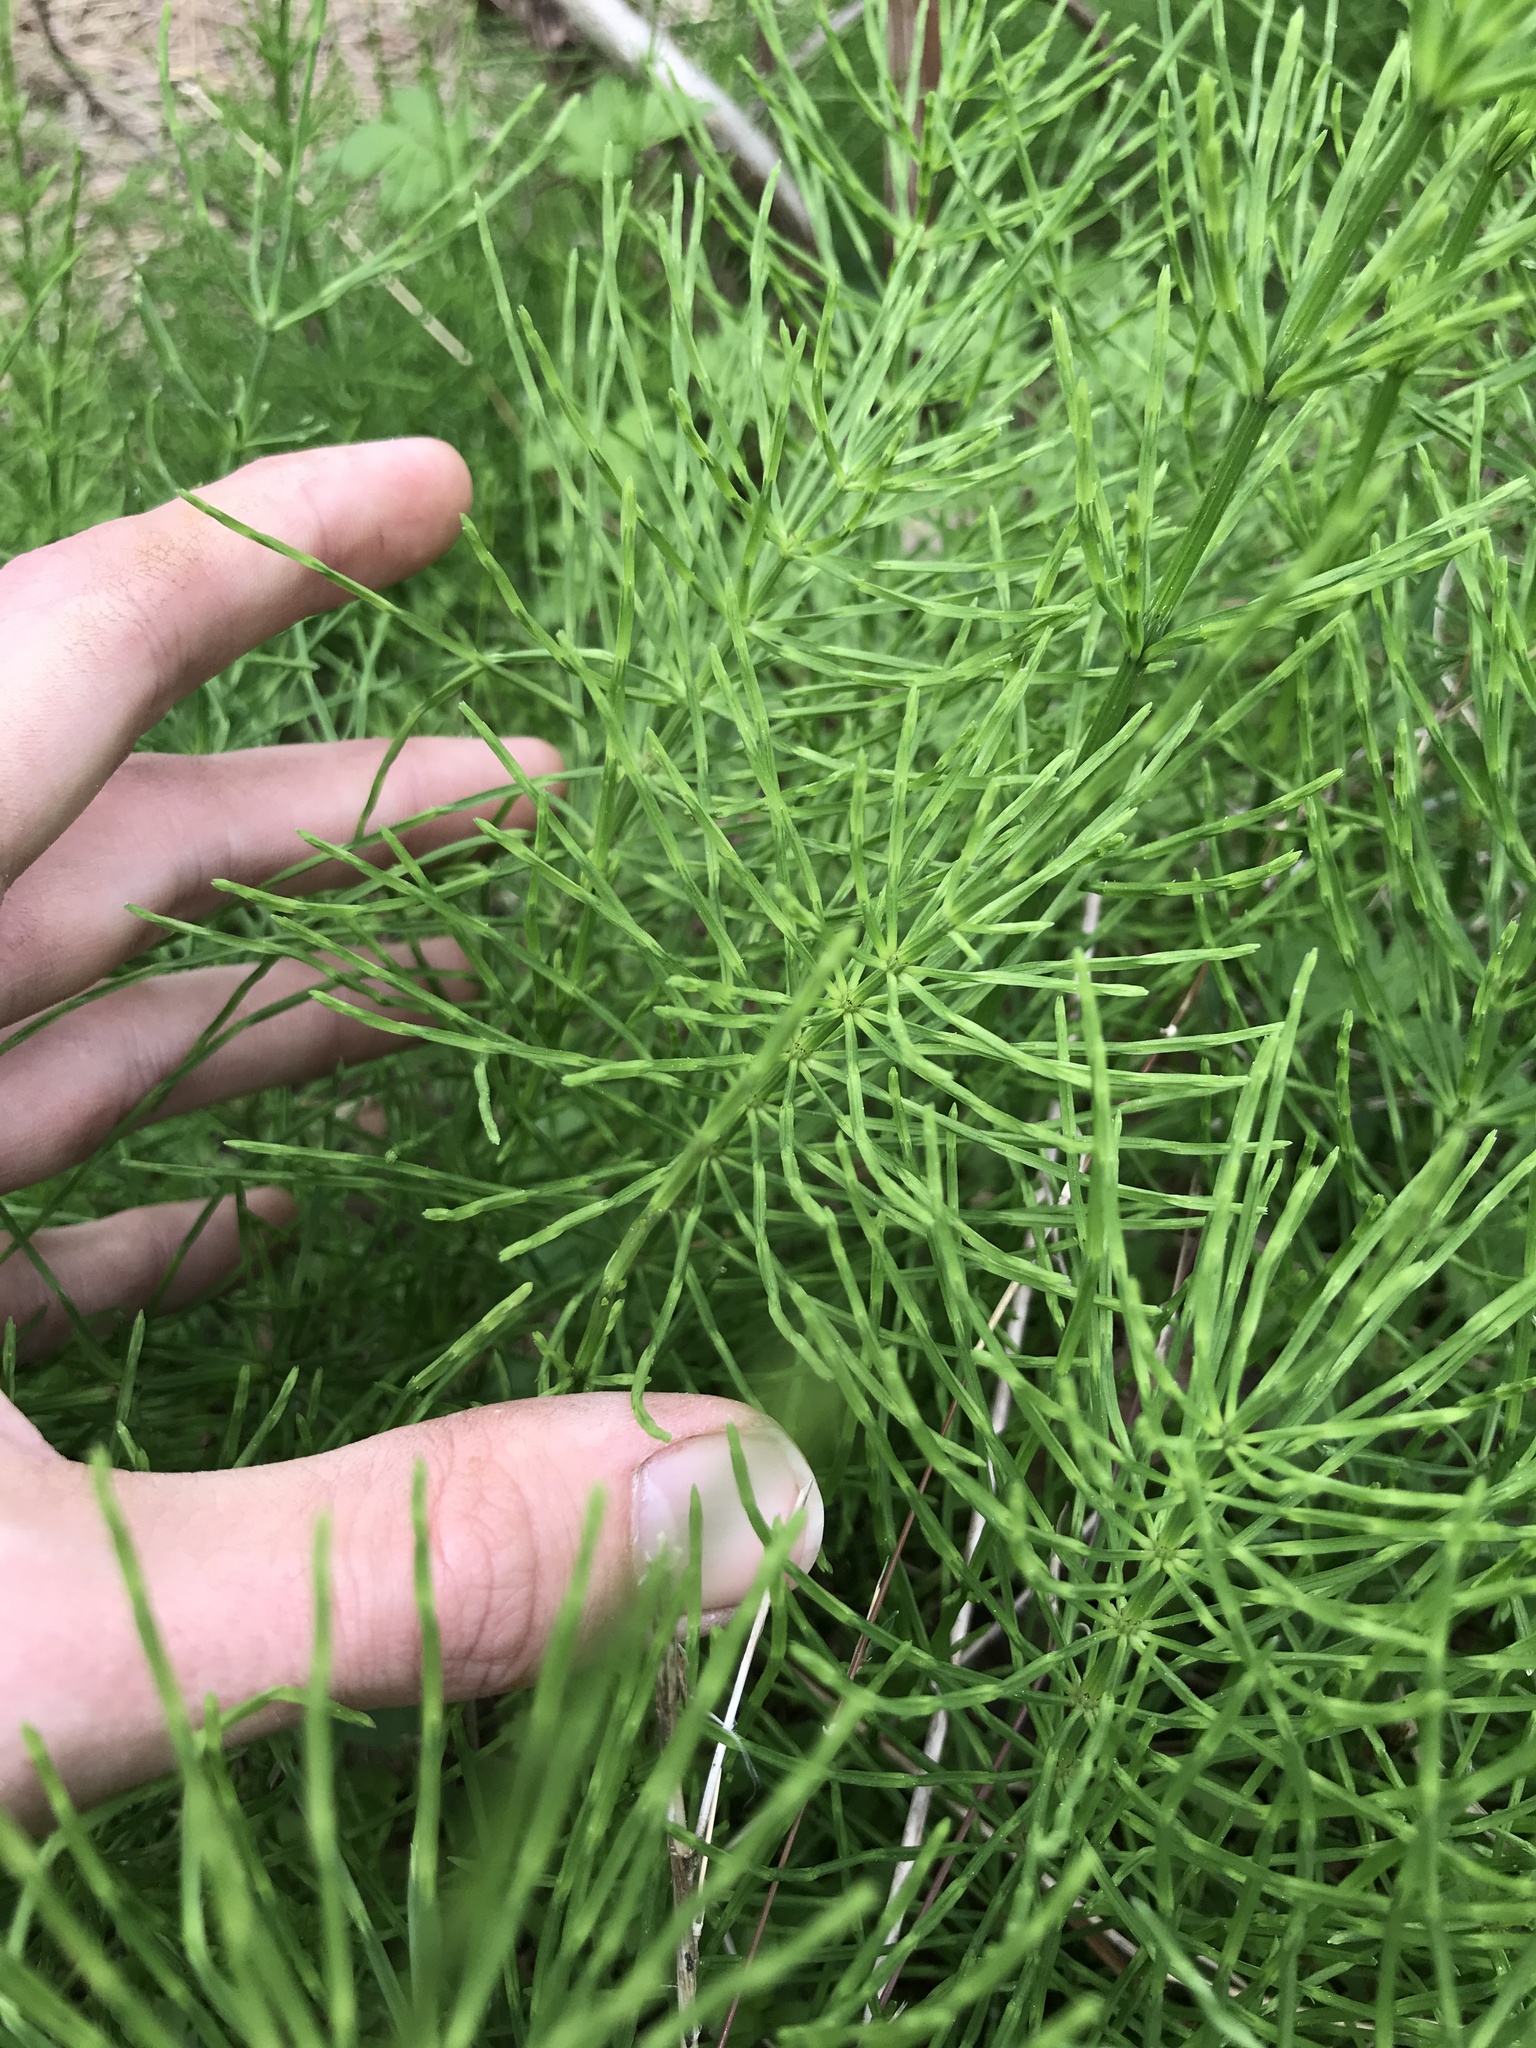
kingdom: Plantae
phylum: Tracheophyta
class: Polypodiopsida
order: Equisetales
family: Equisetaceae
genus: Equisetum
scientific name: Equisetum arvense
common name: Field horsetail
